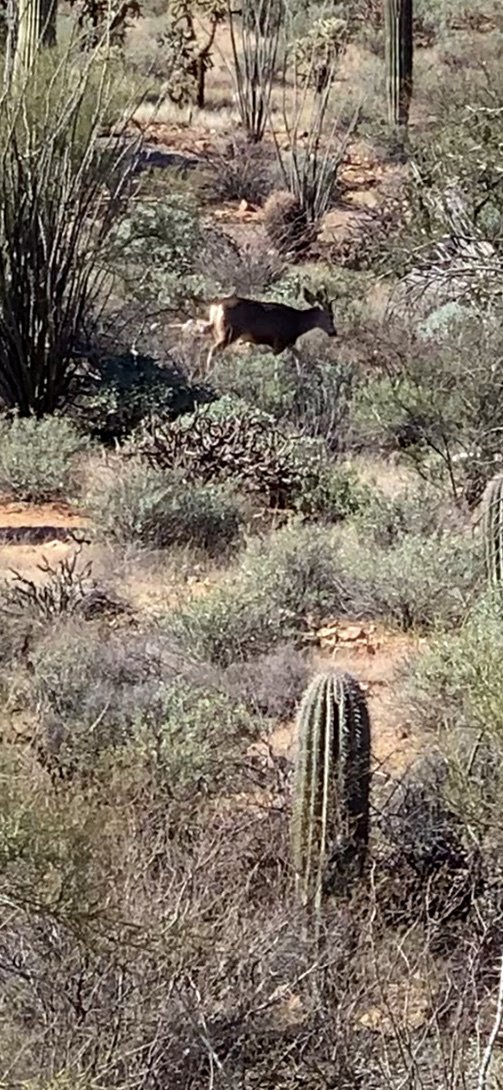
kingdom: Animalia
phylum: Chordata
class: Mammalia
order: Artiodactyla
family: Cervidae
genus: Odocoileus
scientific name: Odocoileus hemionus
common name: Mule deer
